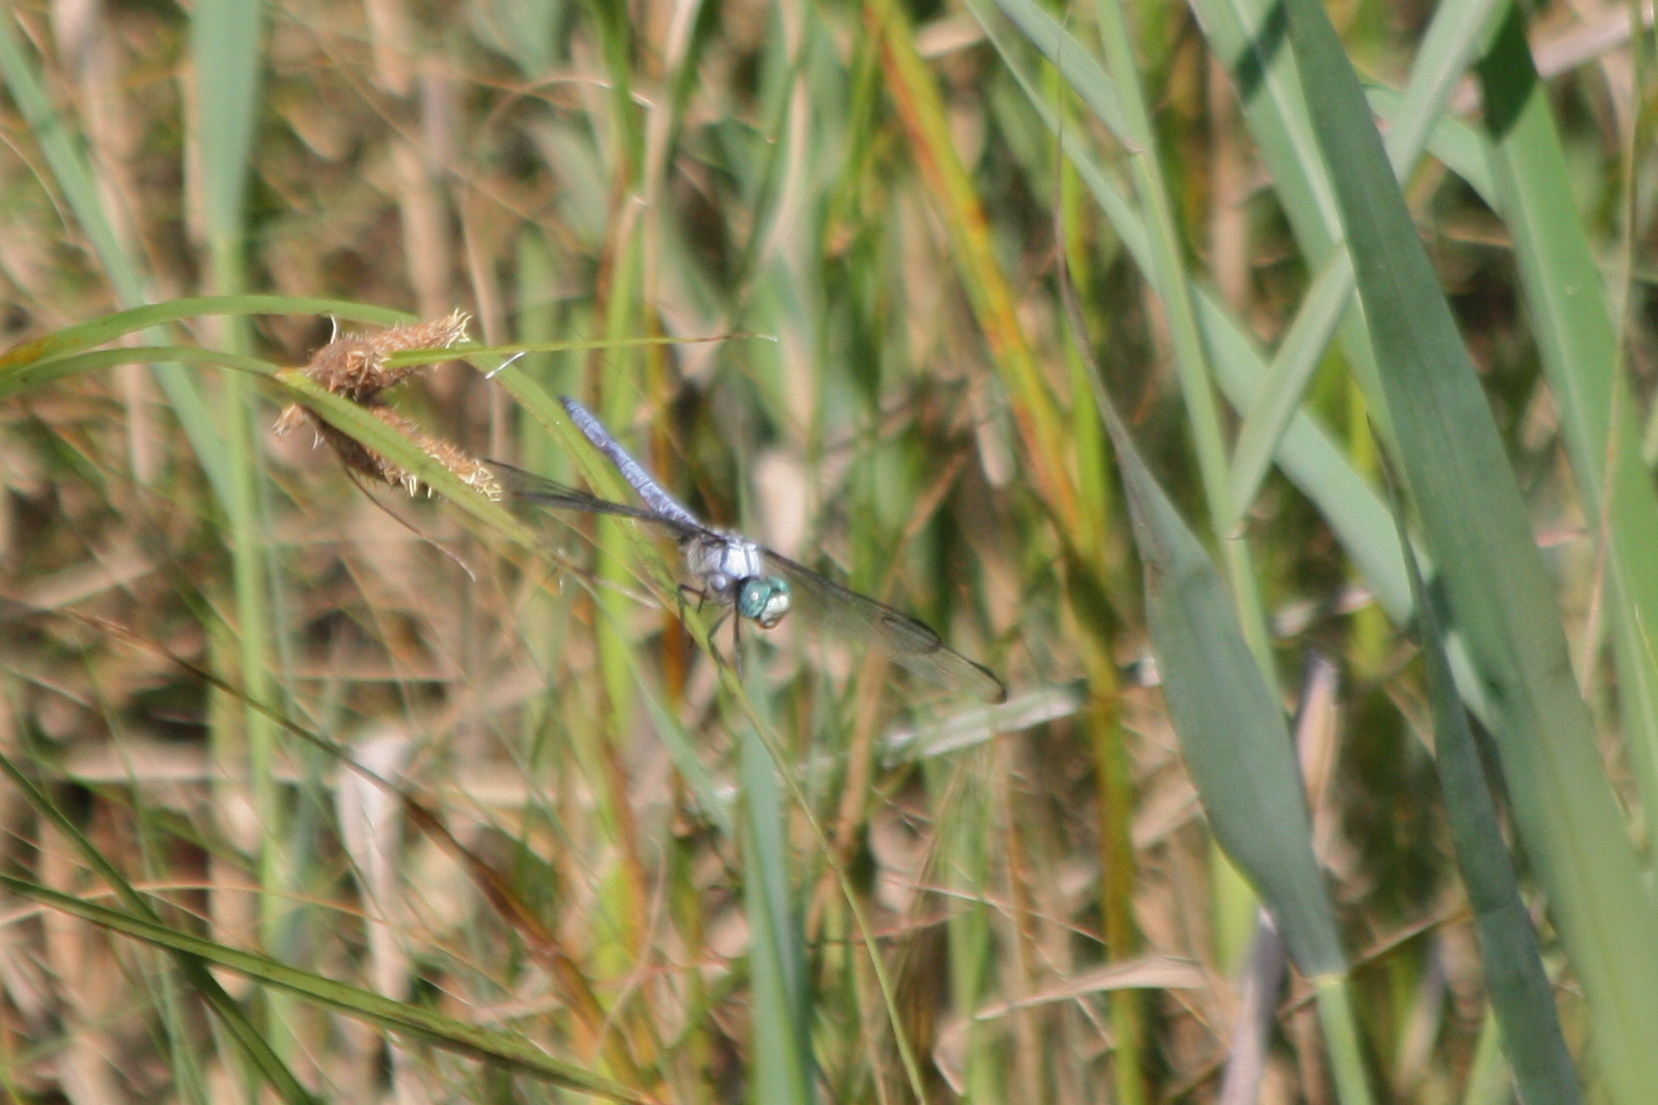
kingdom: Animalia
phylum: Arthropoda
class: Insecta
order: Odonata
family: Libellulidae
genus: Libellula
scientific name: Libellula vibrans
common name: Great blue skimmer
